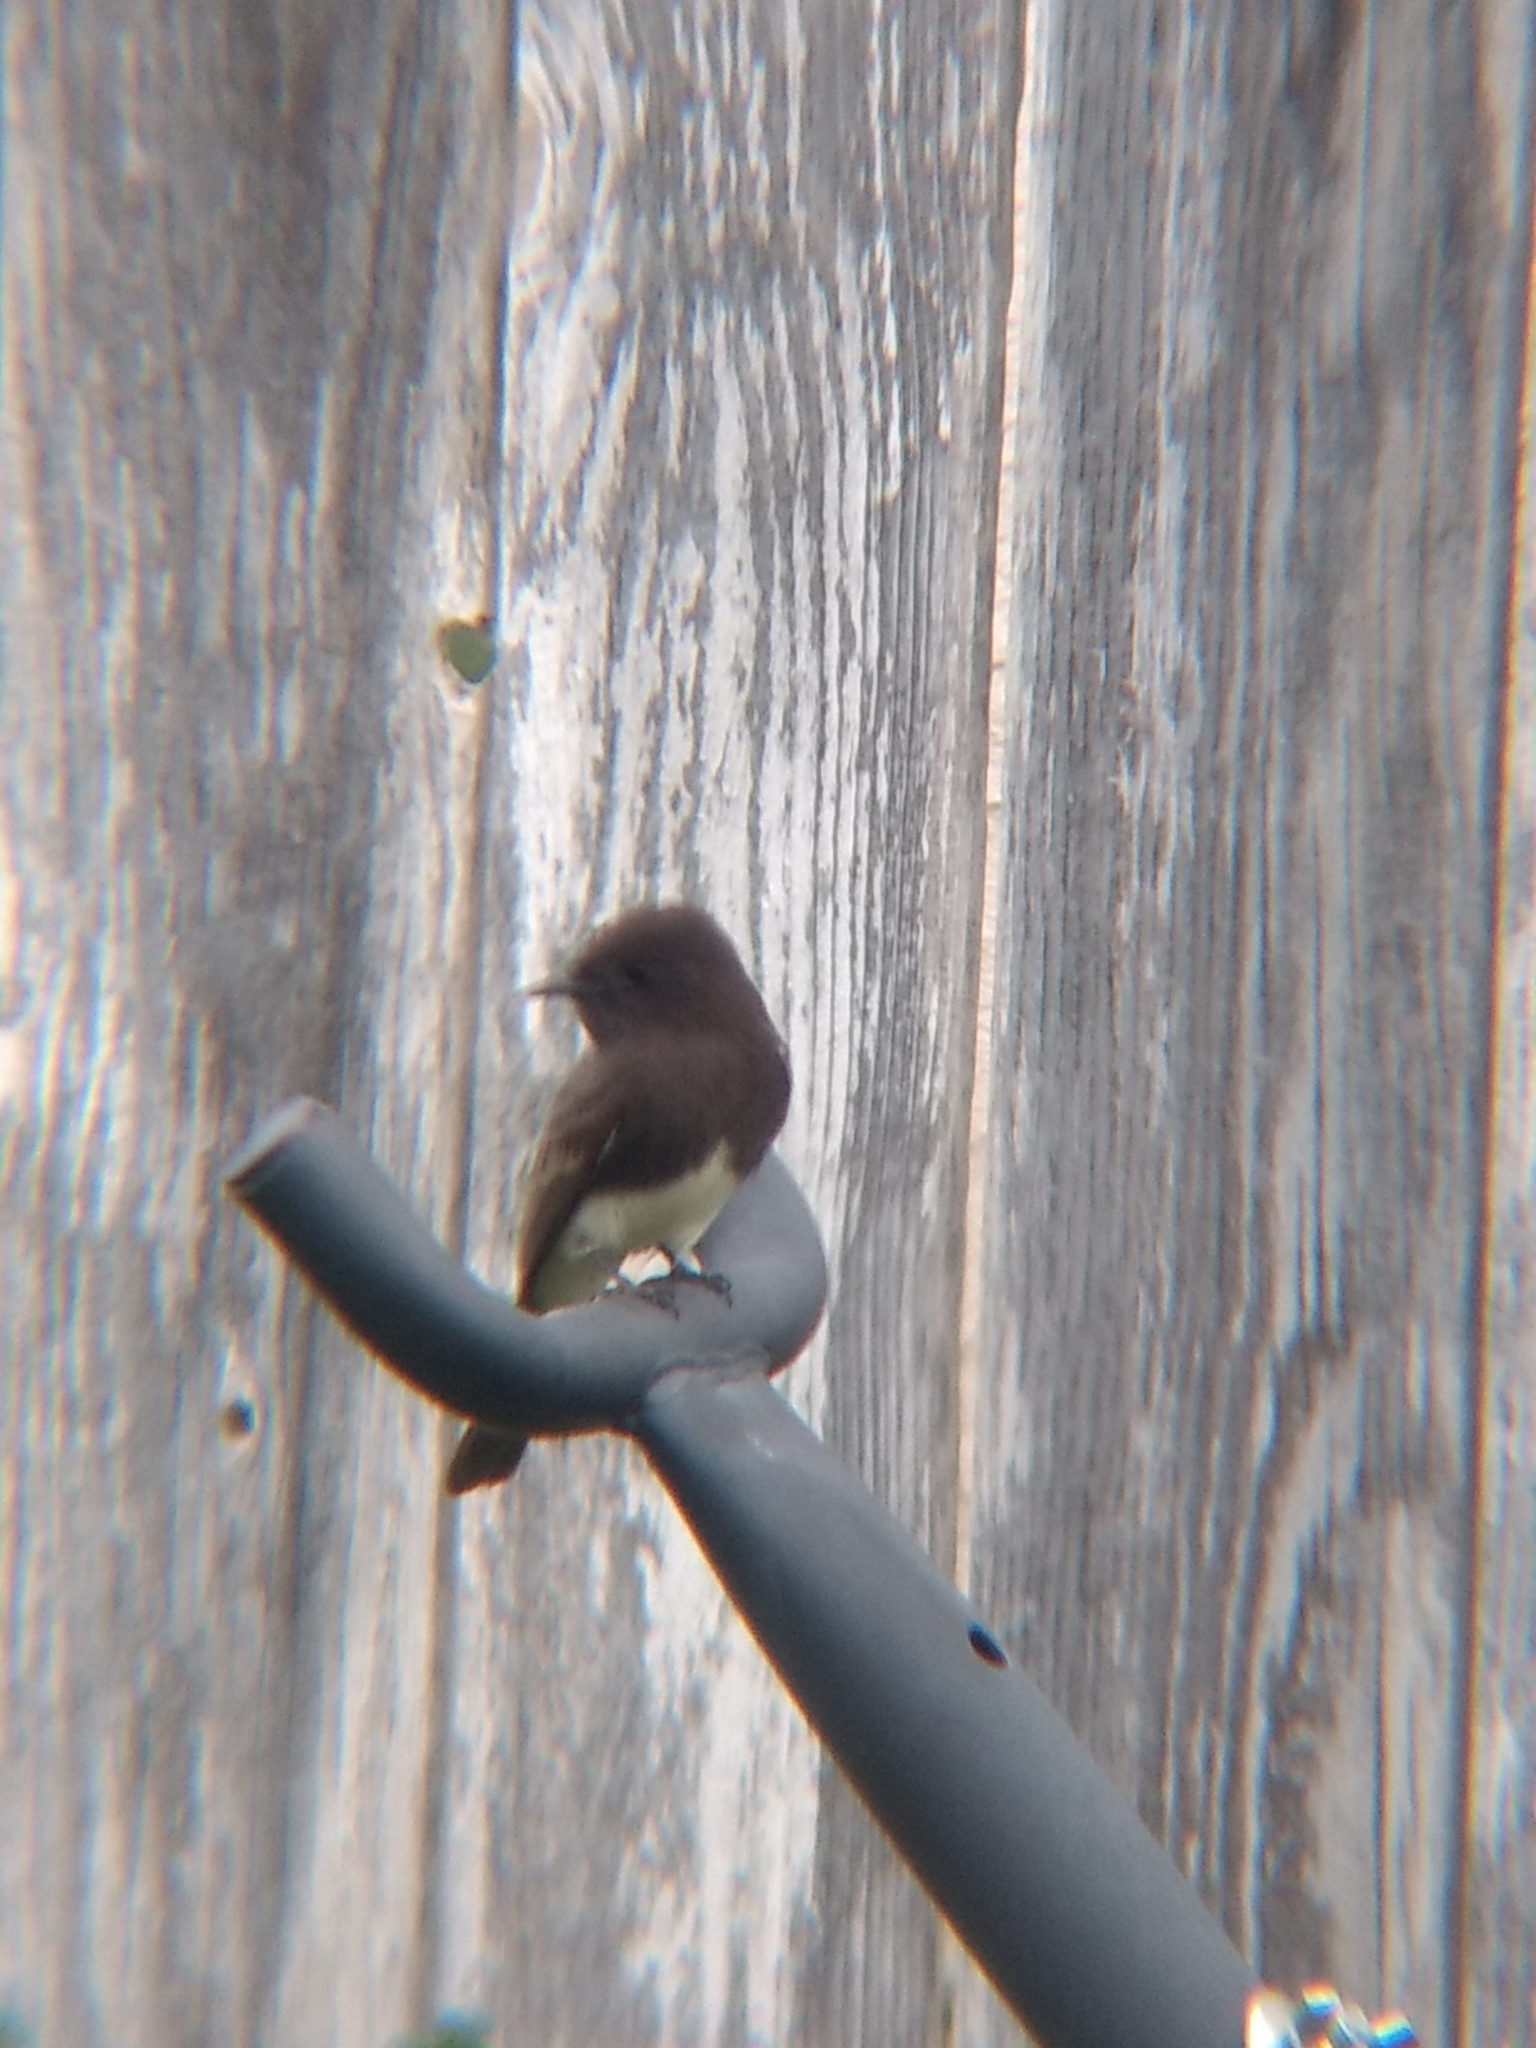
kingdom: Animalia
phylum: Chordata
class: Aves
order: Passeriformes
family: Tyrannidae
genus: Sayornis
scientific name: Sayornis nigricans
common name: Black phoebe
